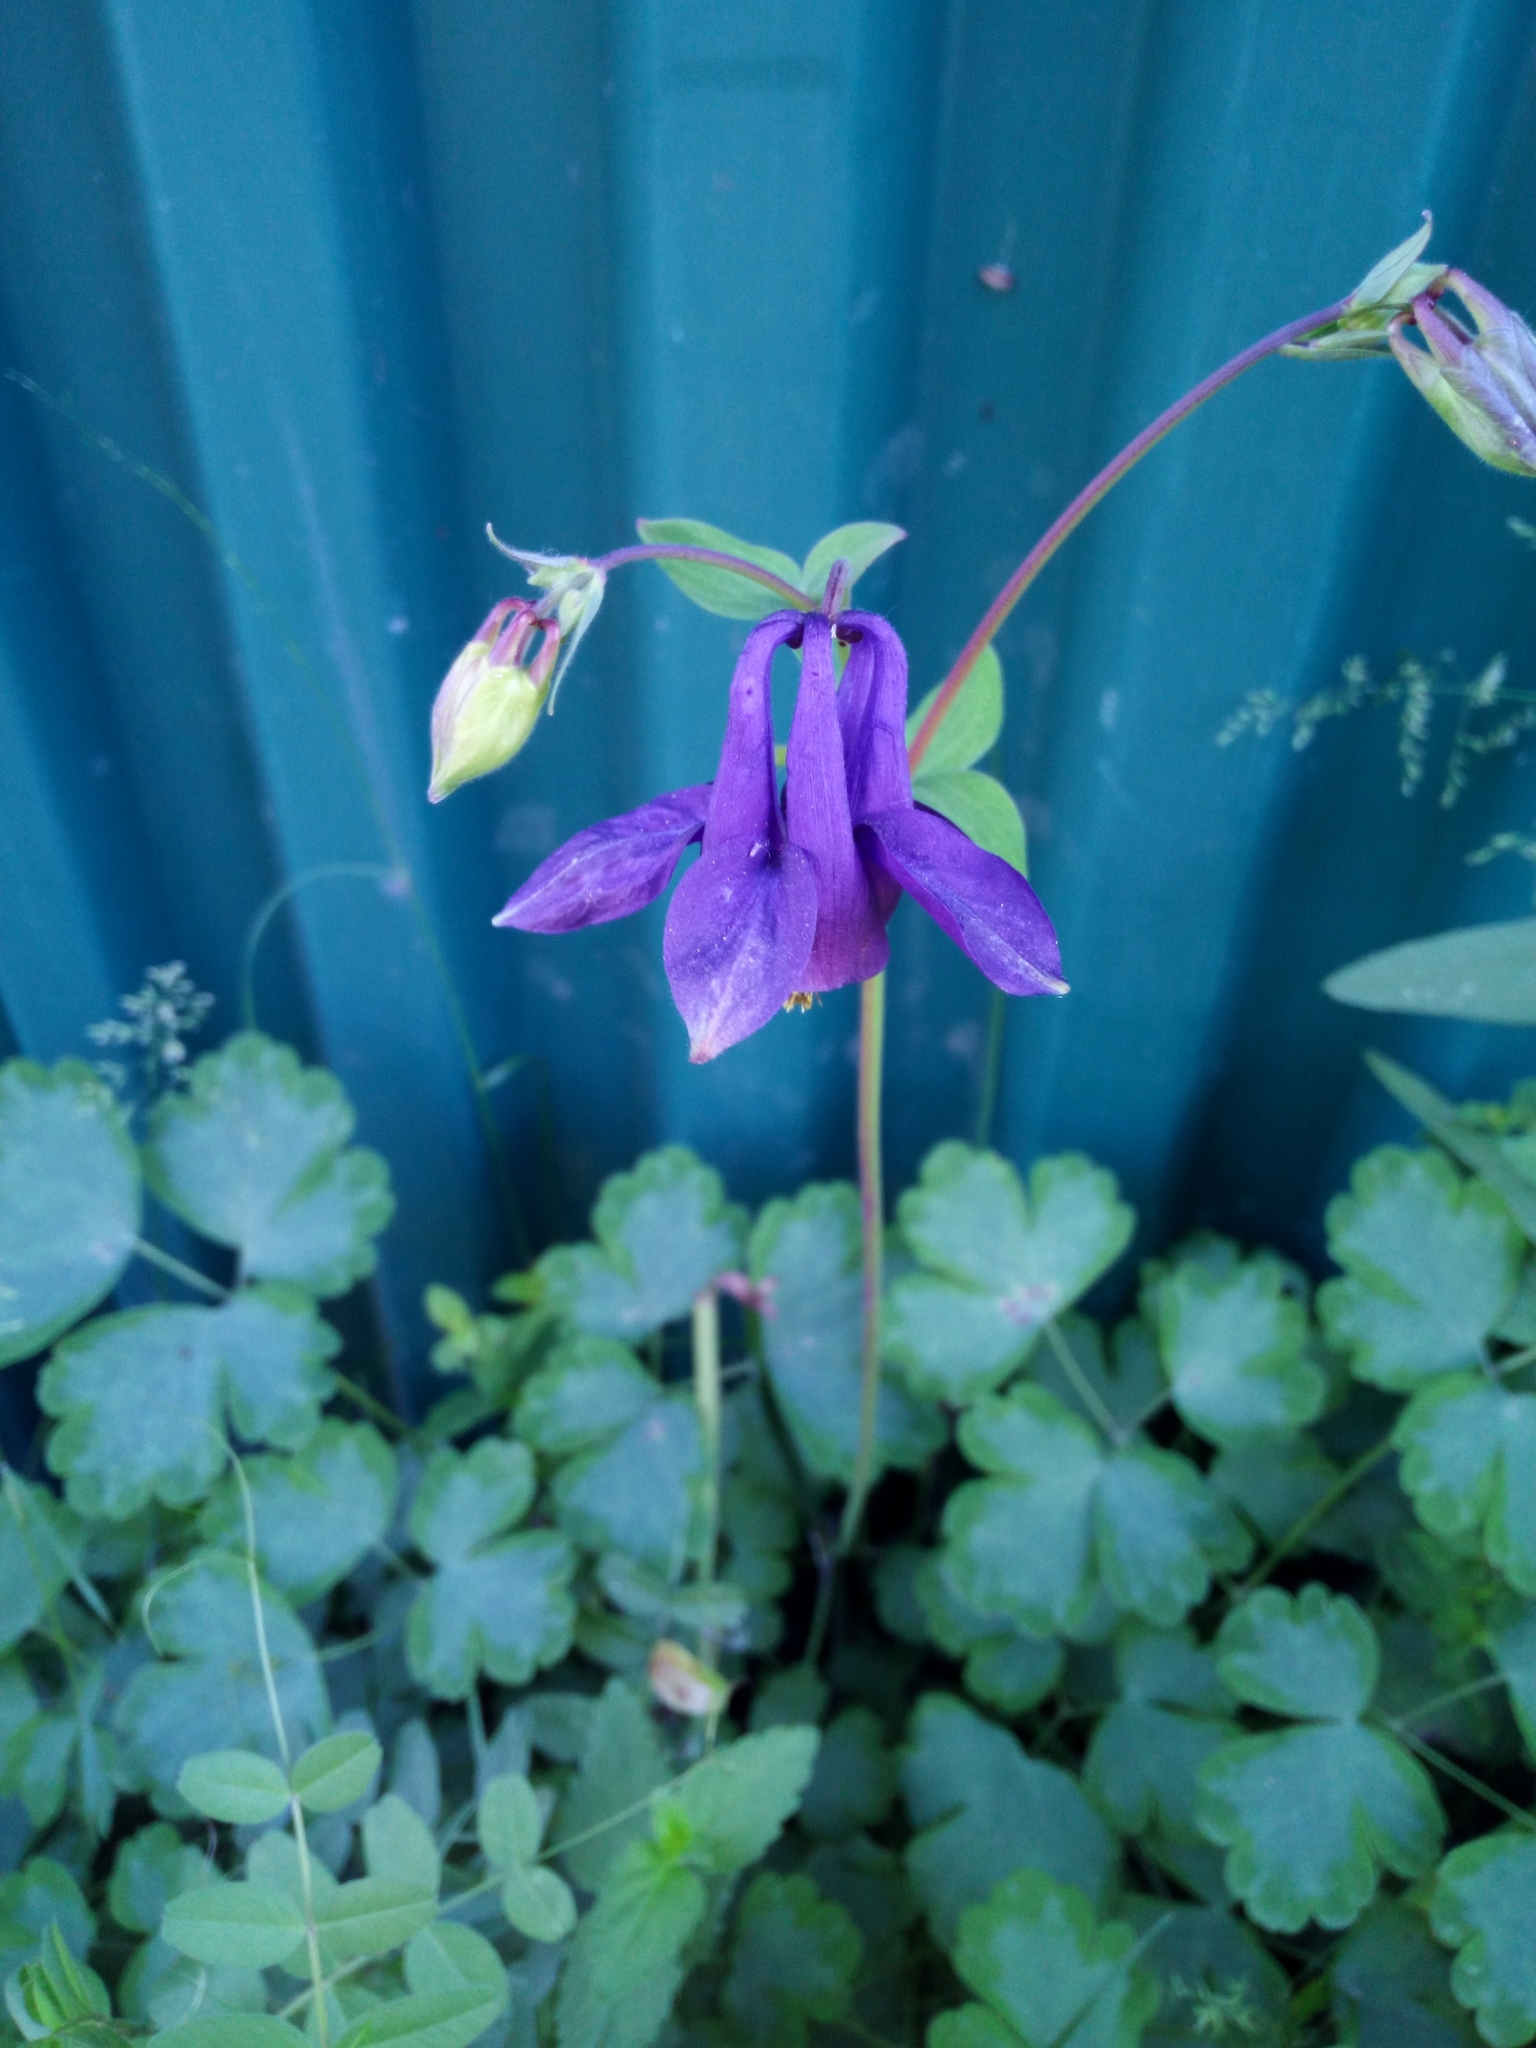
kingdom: Plantae
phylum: Tracheophyta
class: Magnoliopsida
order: Ranunculales
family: Ranunculaceae
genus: Aquilegia
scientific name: Aquilegia vulgaris
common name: Columbine
